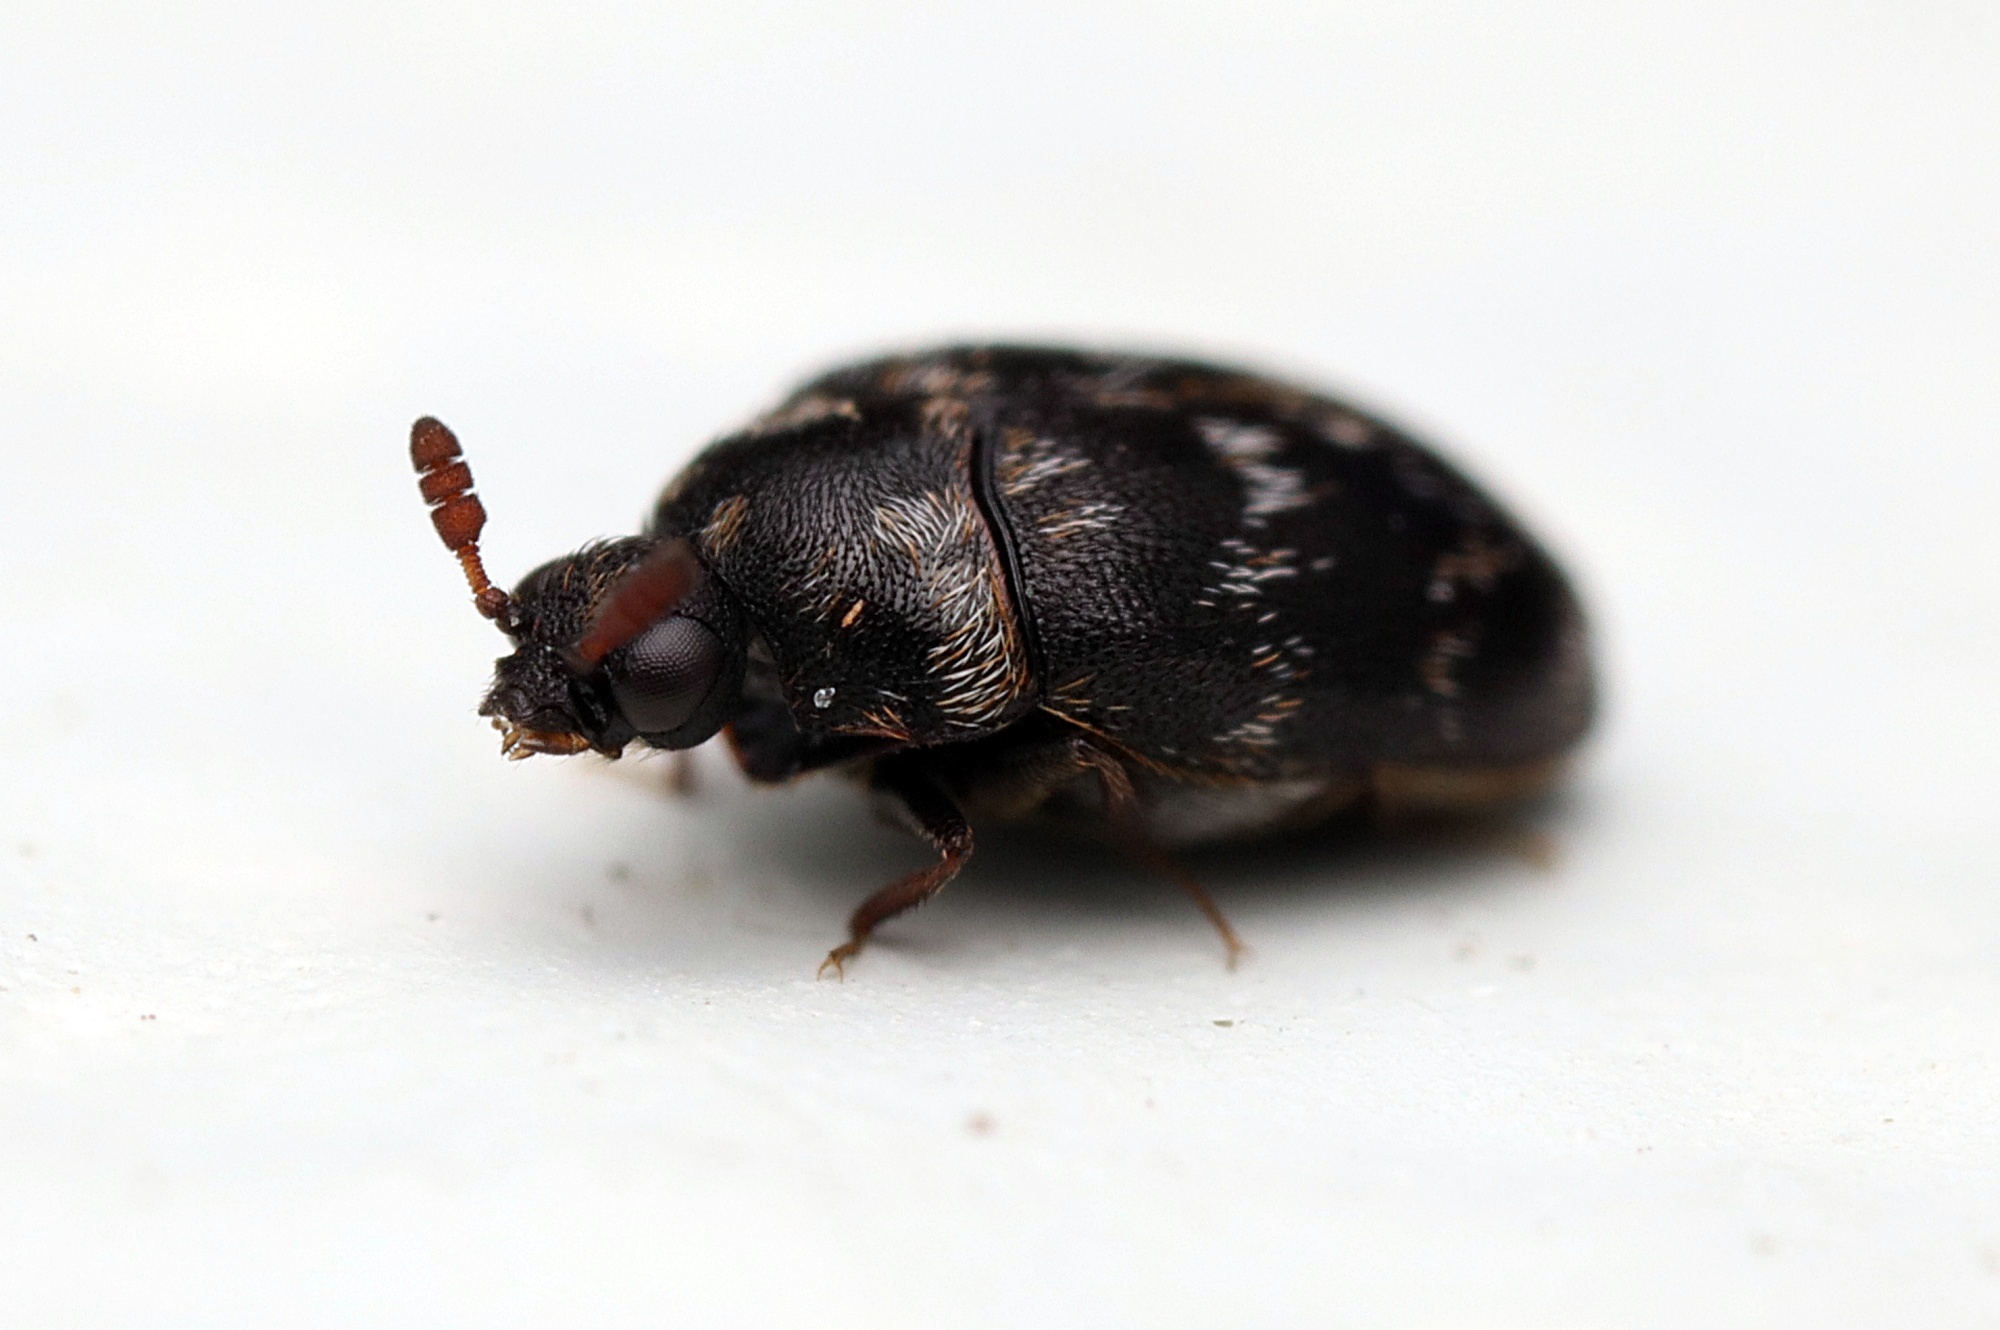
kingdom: Animalia
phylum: Arthropoda
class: Insecta
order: Coleoptera
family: Dermestidae
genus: Anthrenocerus
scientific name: Anthrenocerus australis
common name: Australian carpet beetle
